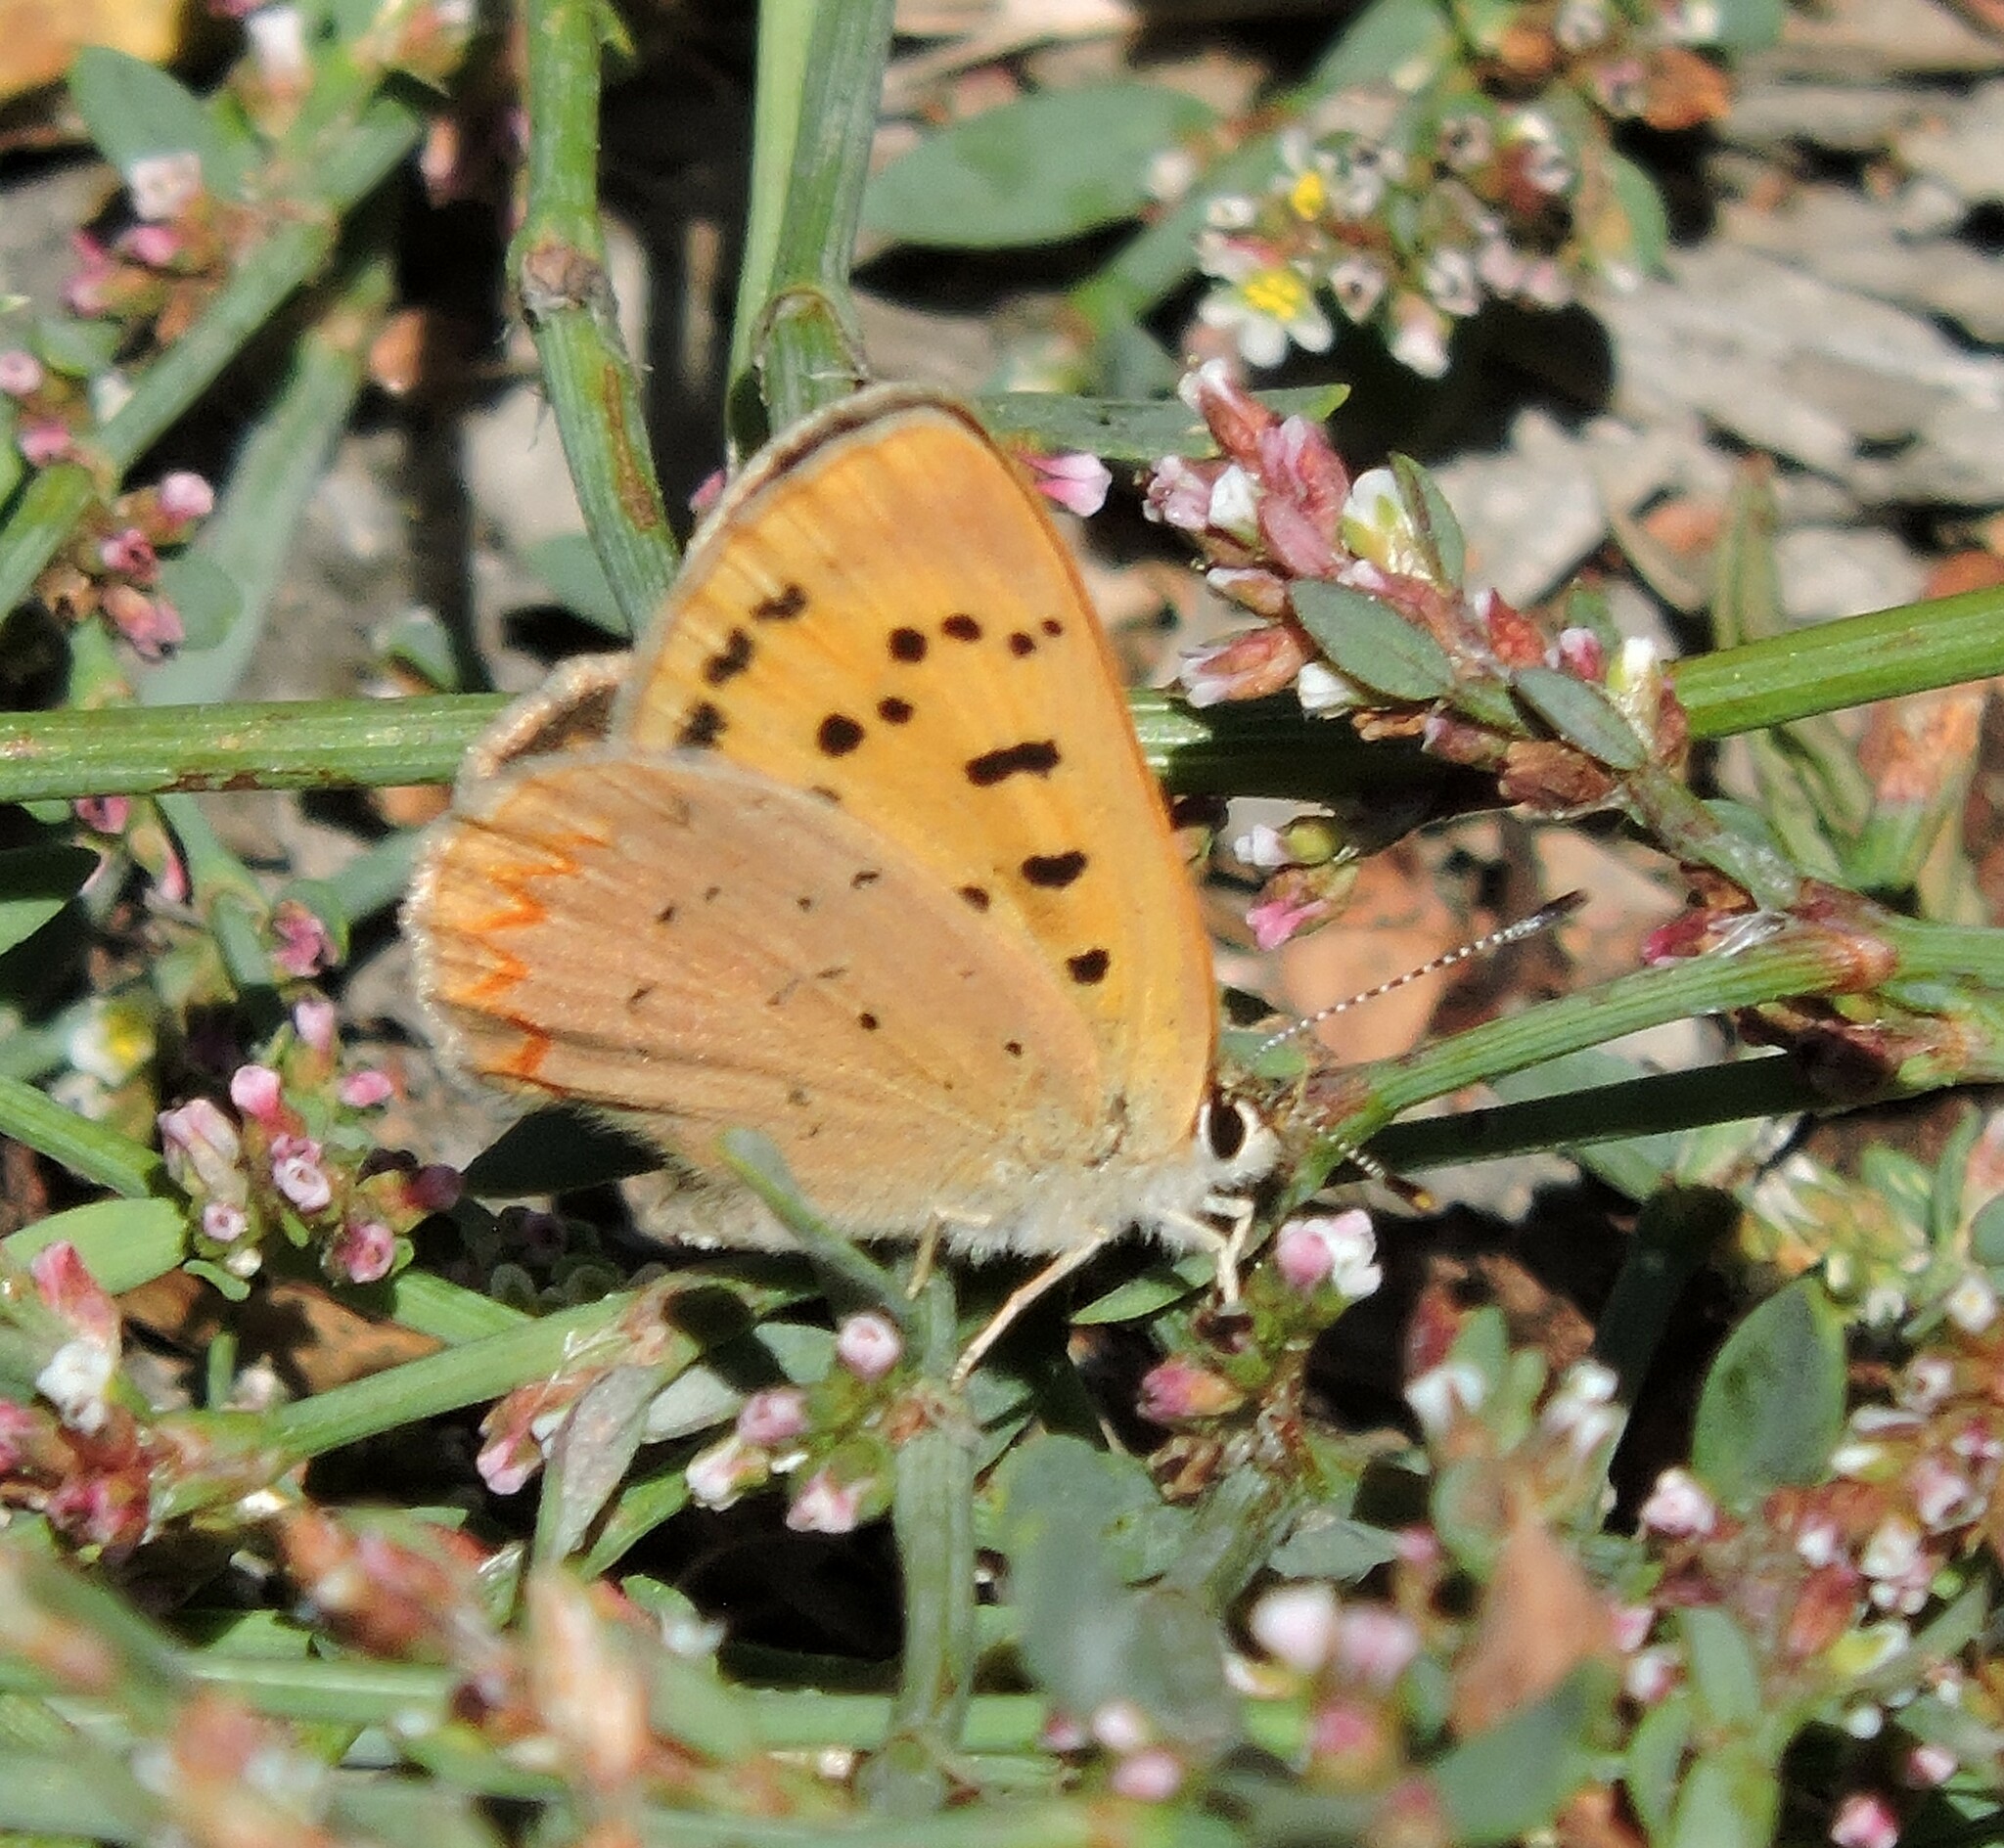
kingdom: Animalia
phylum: Arthropoda
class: Insecta
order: Lepidoptera
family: Lycaenidae
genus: Tharsalea
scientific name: Tharsalea helloides
